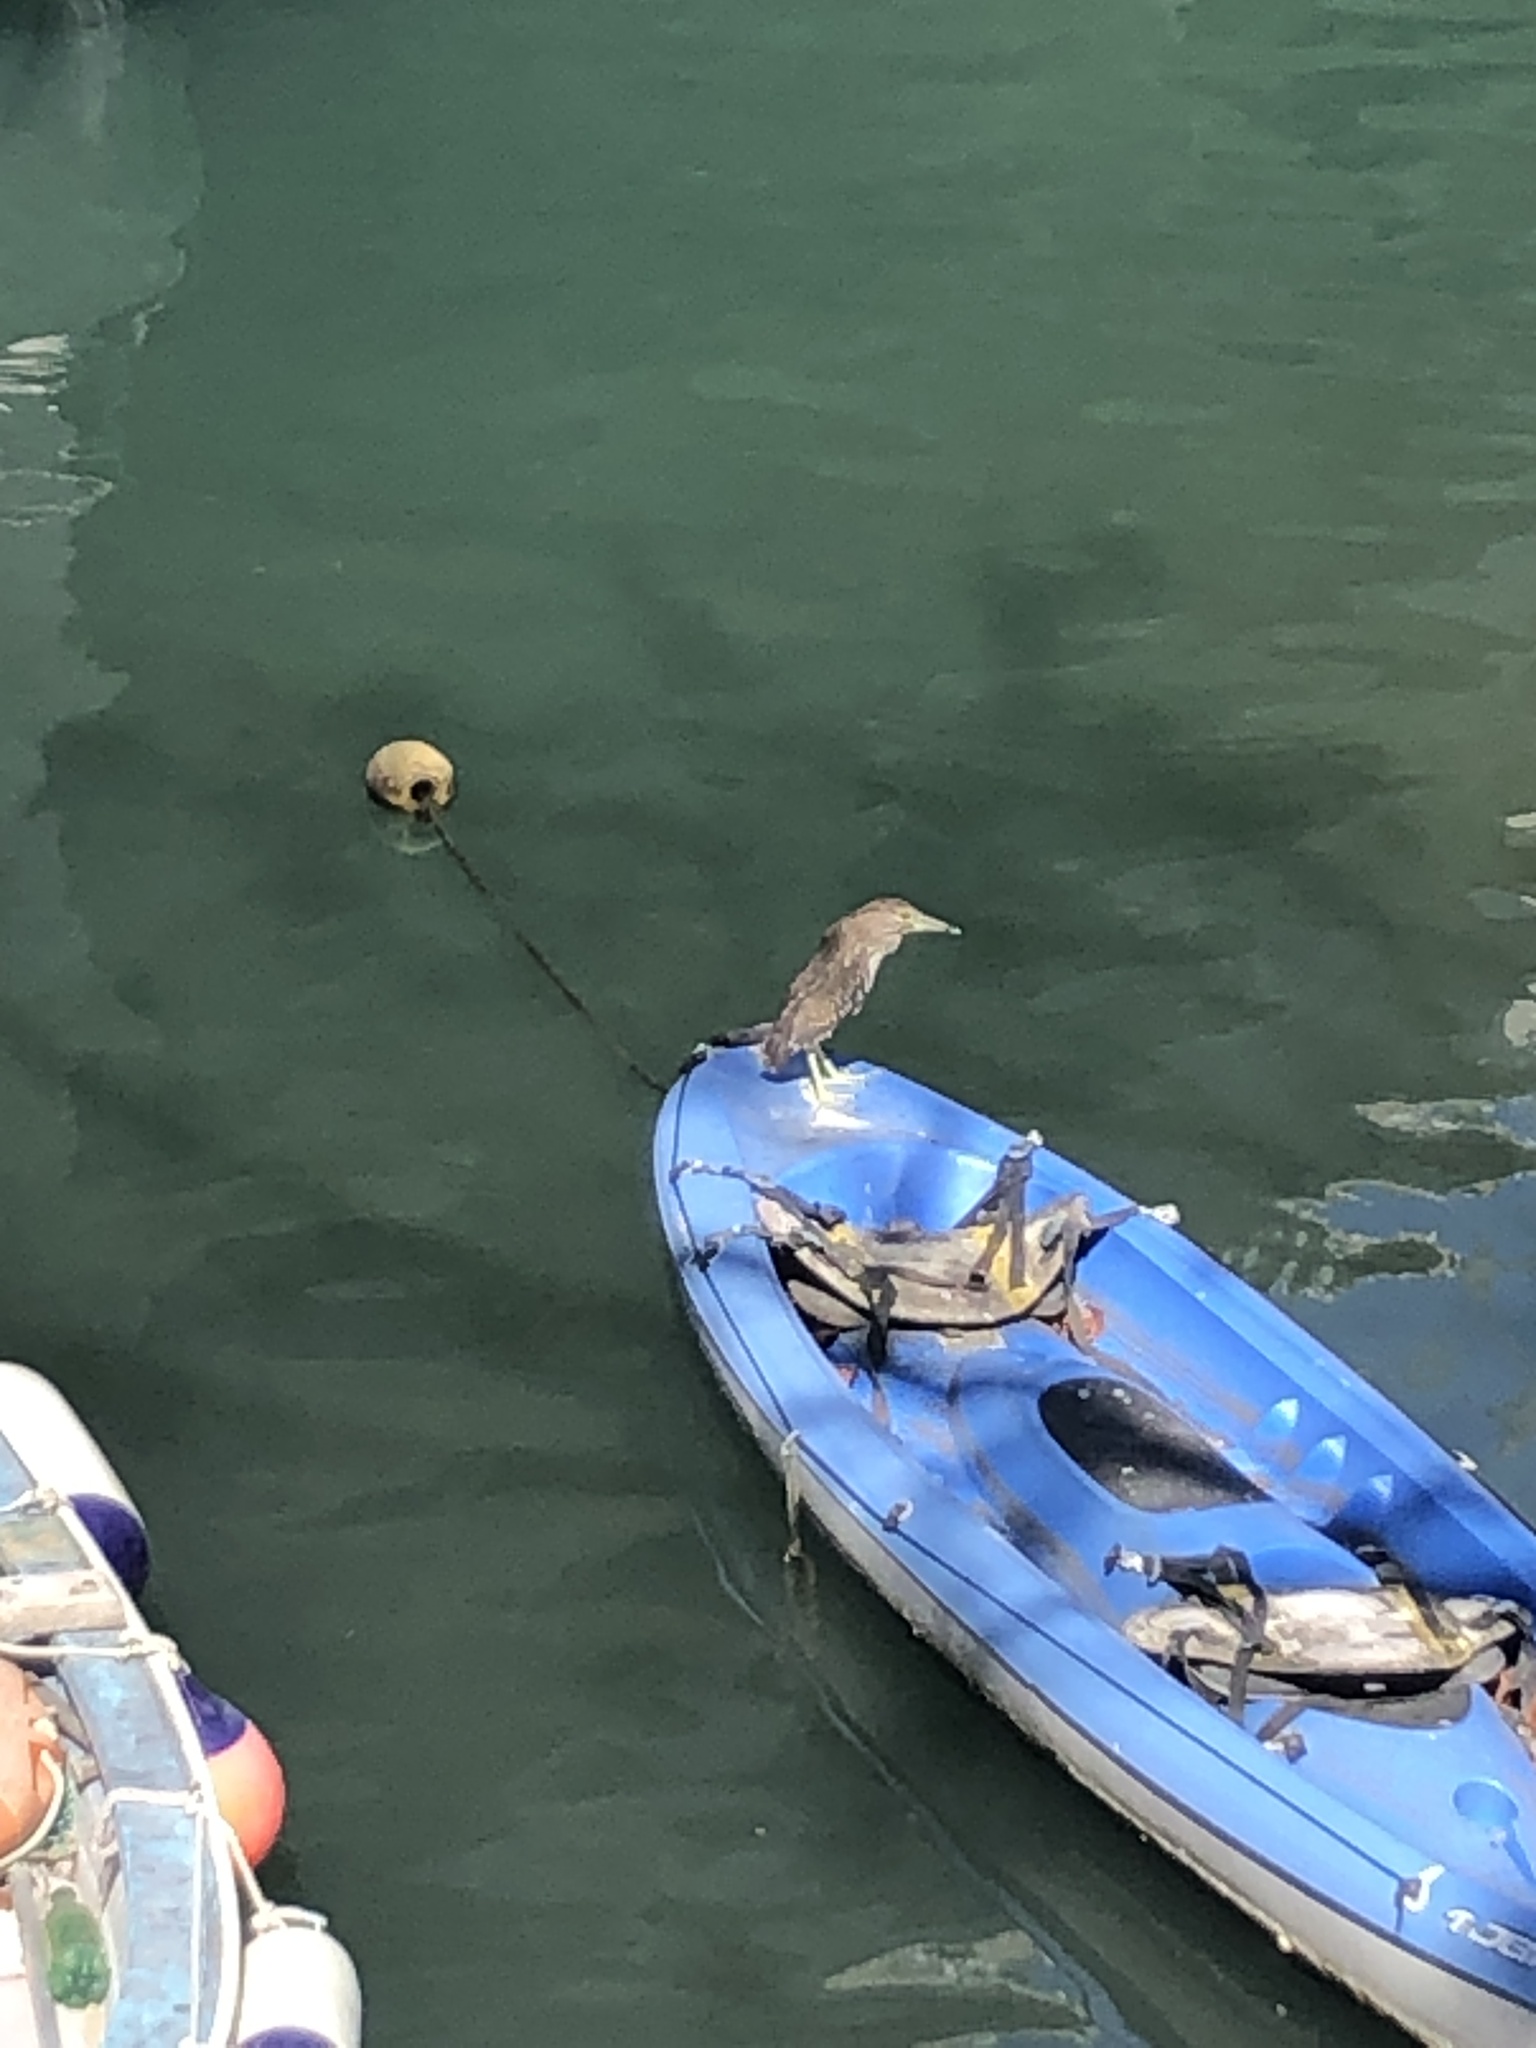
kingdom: Animalia
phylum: Chordata
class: Aves
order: Pelecaniformes
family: Ardeidae
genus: Nycticorax
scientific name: Nycticorax nycticorax
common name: Black-crowned night heron
